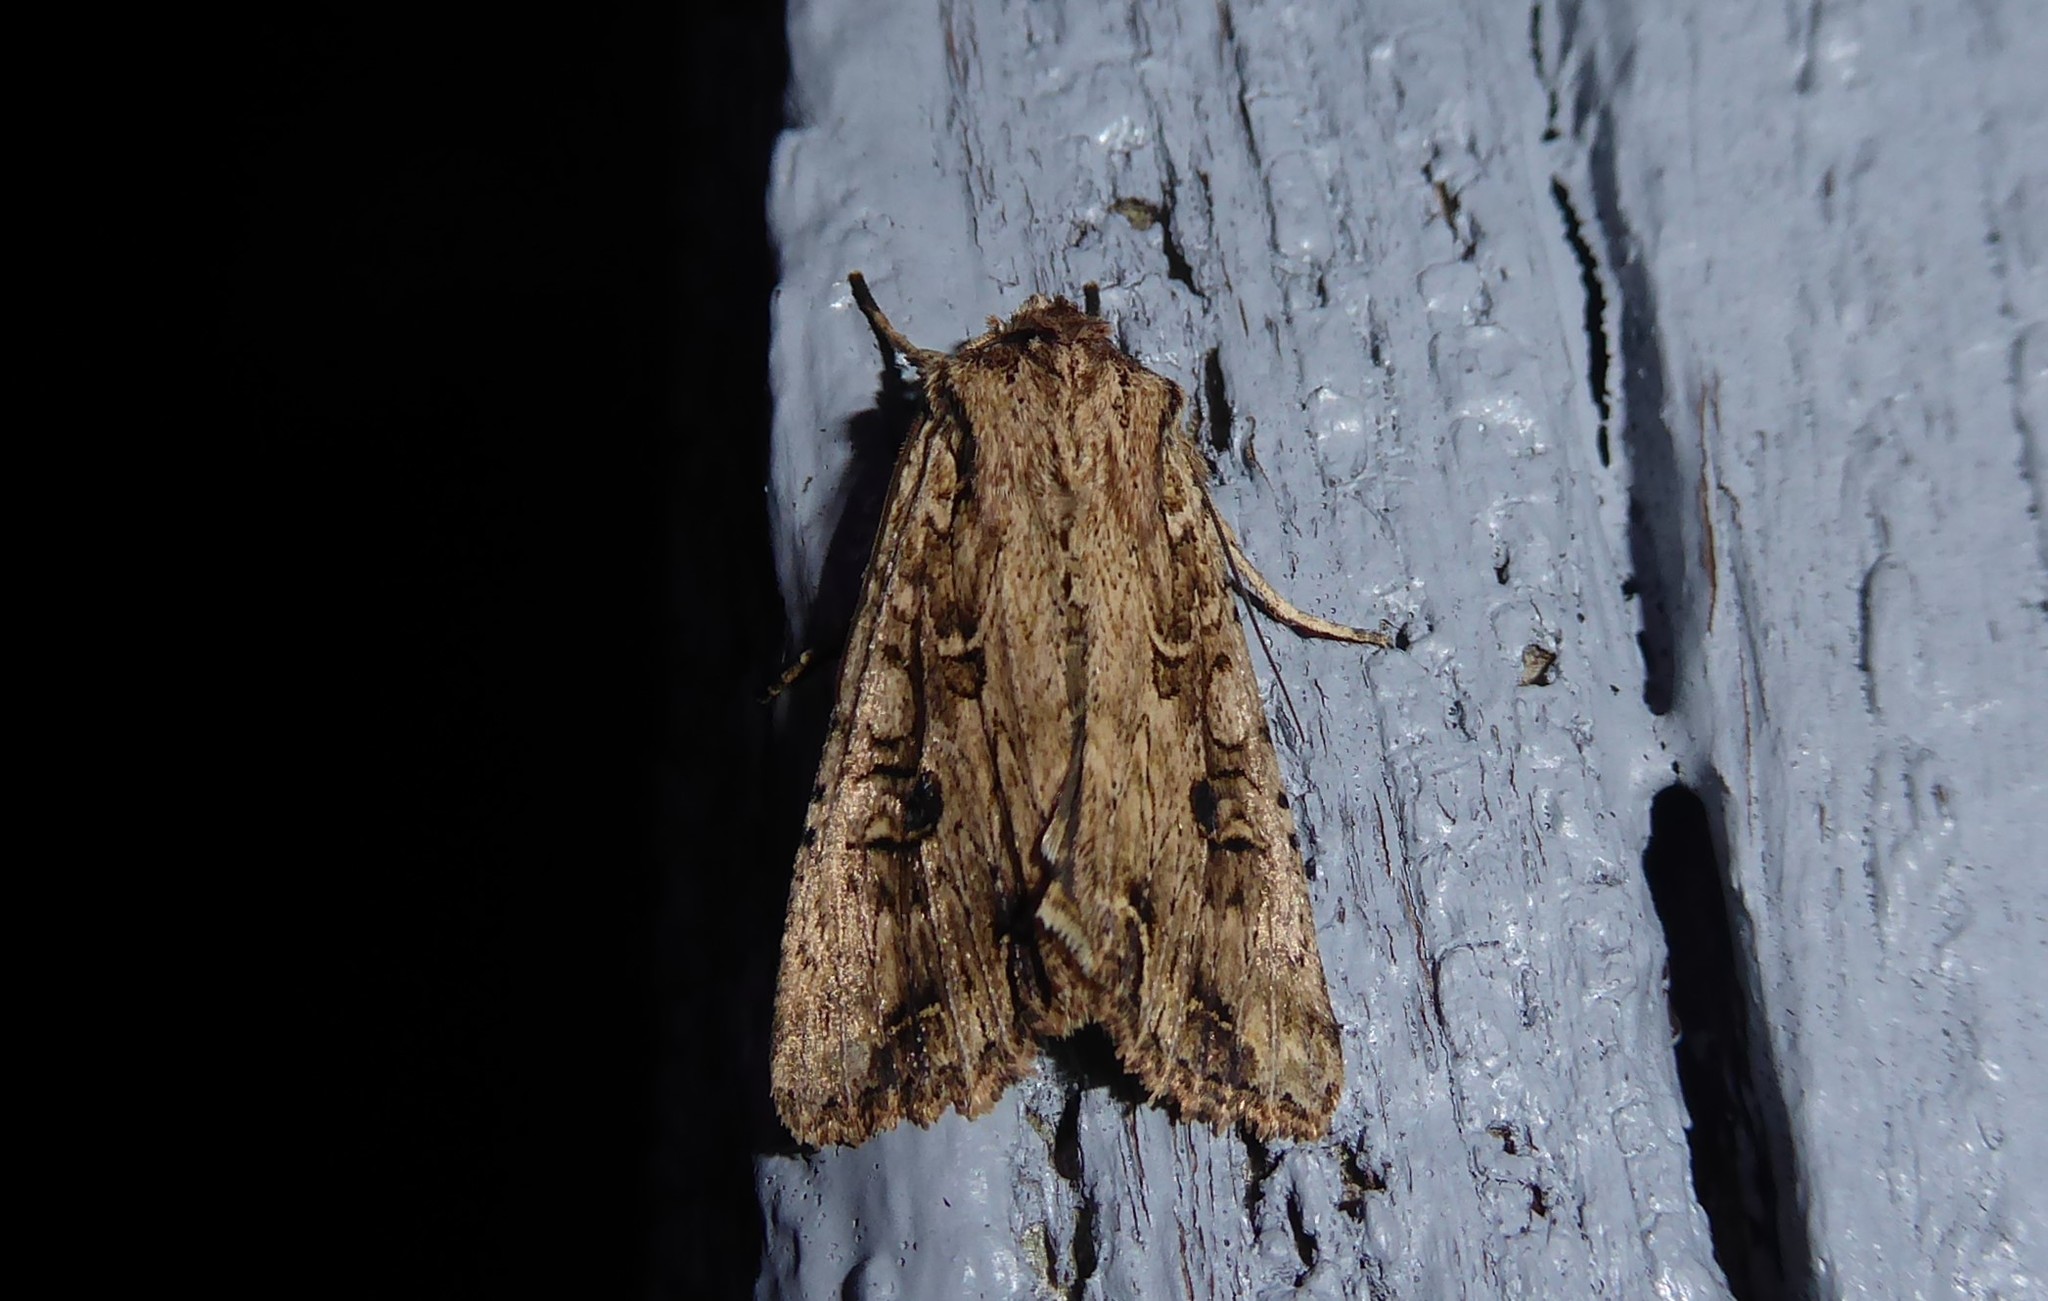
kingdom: Animalia
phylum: Arthropoda
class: Insecta
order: Lepidoptera
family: Noctuidae
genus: Ichneutica
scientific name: Ichneutica lignana
